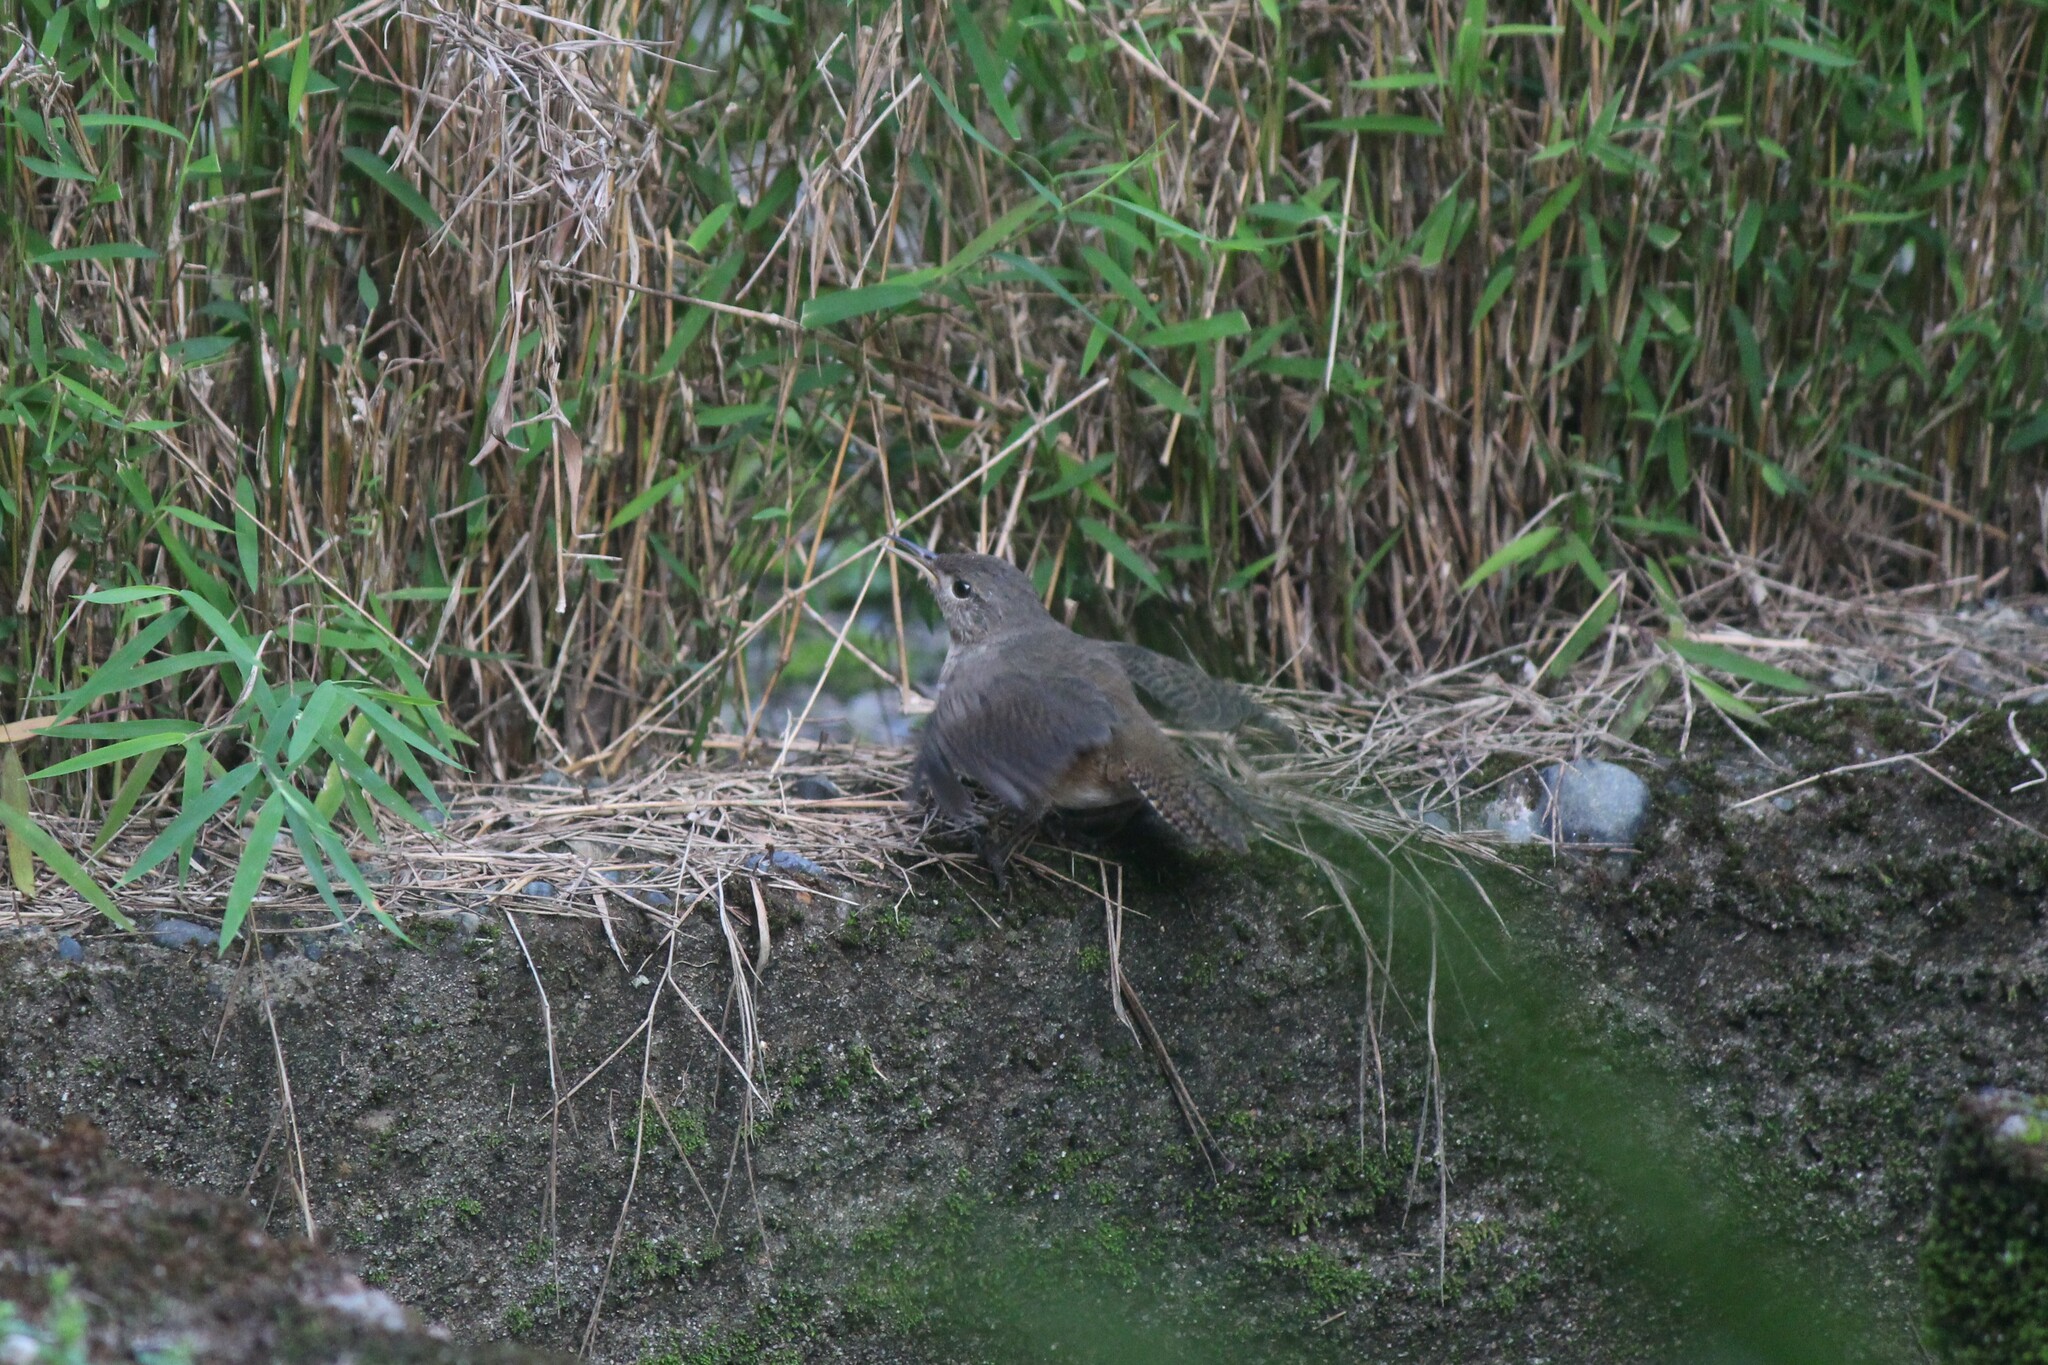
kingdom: Animalia
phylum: Chordata
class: Aves
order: Passeriformes
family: Troglodytidae
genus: Troglodytes
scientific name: Troglodytes aedon
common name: House wren
